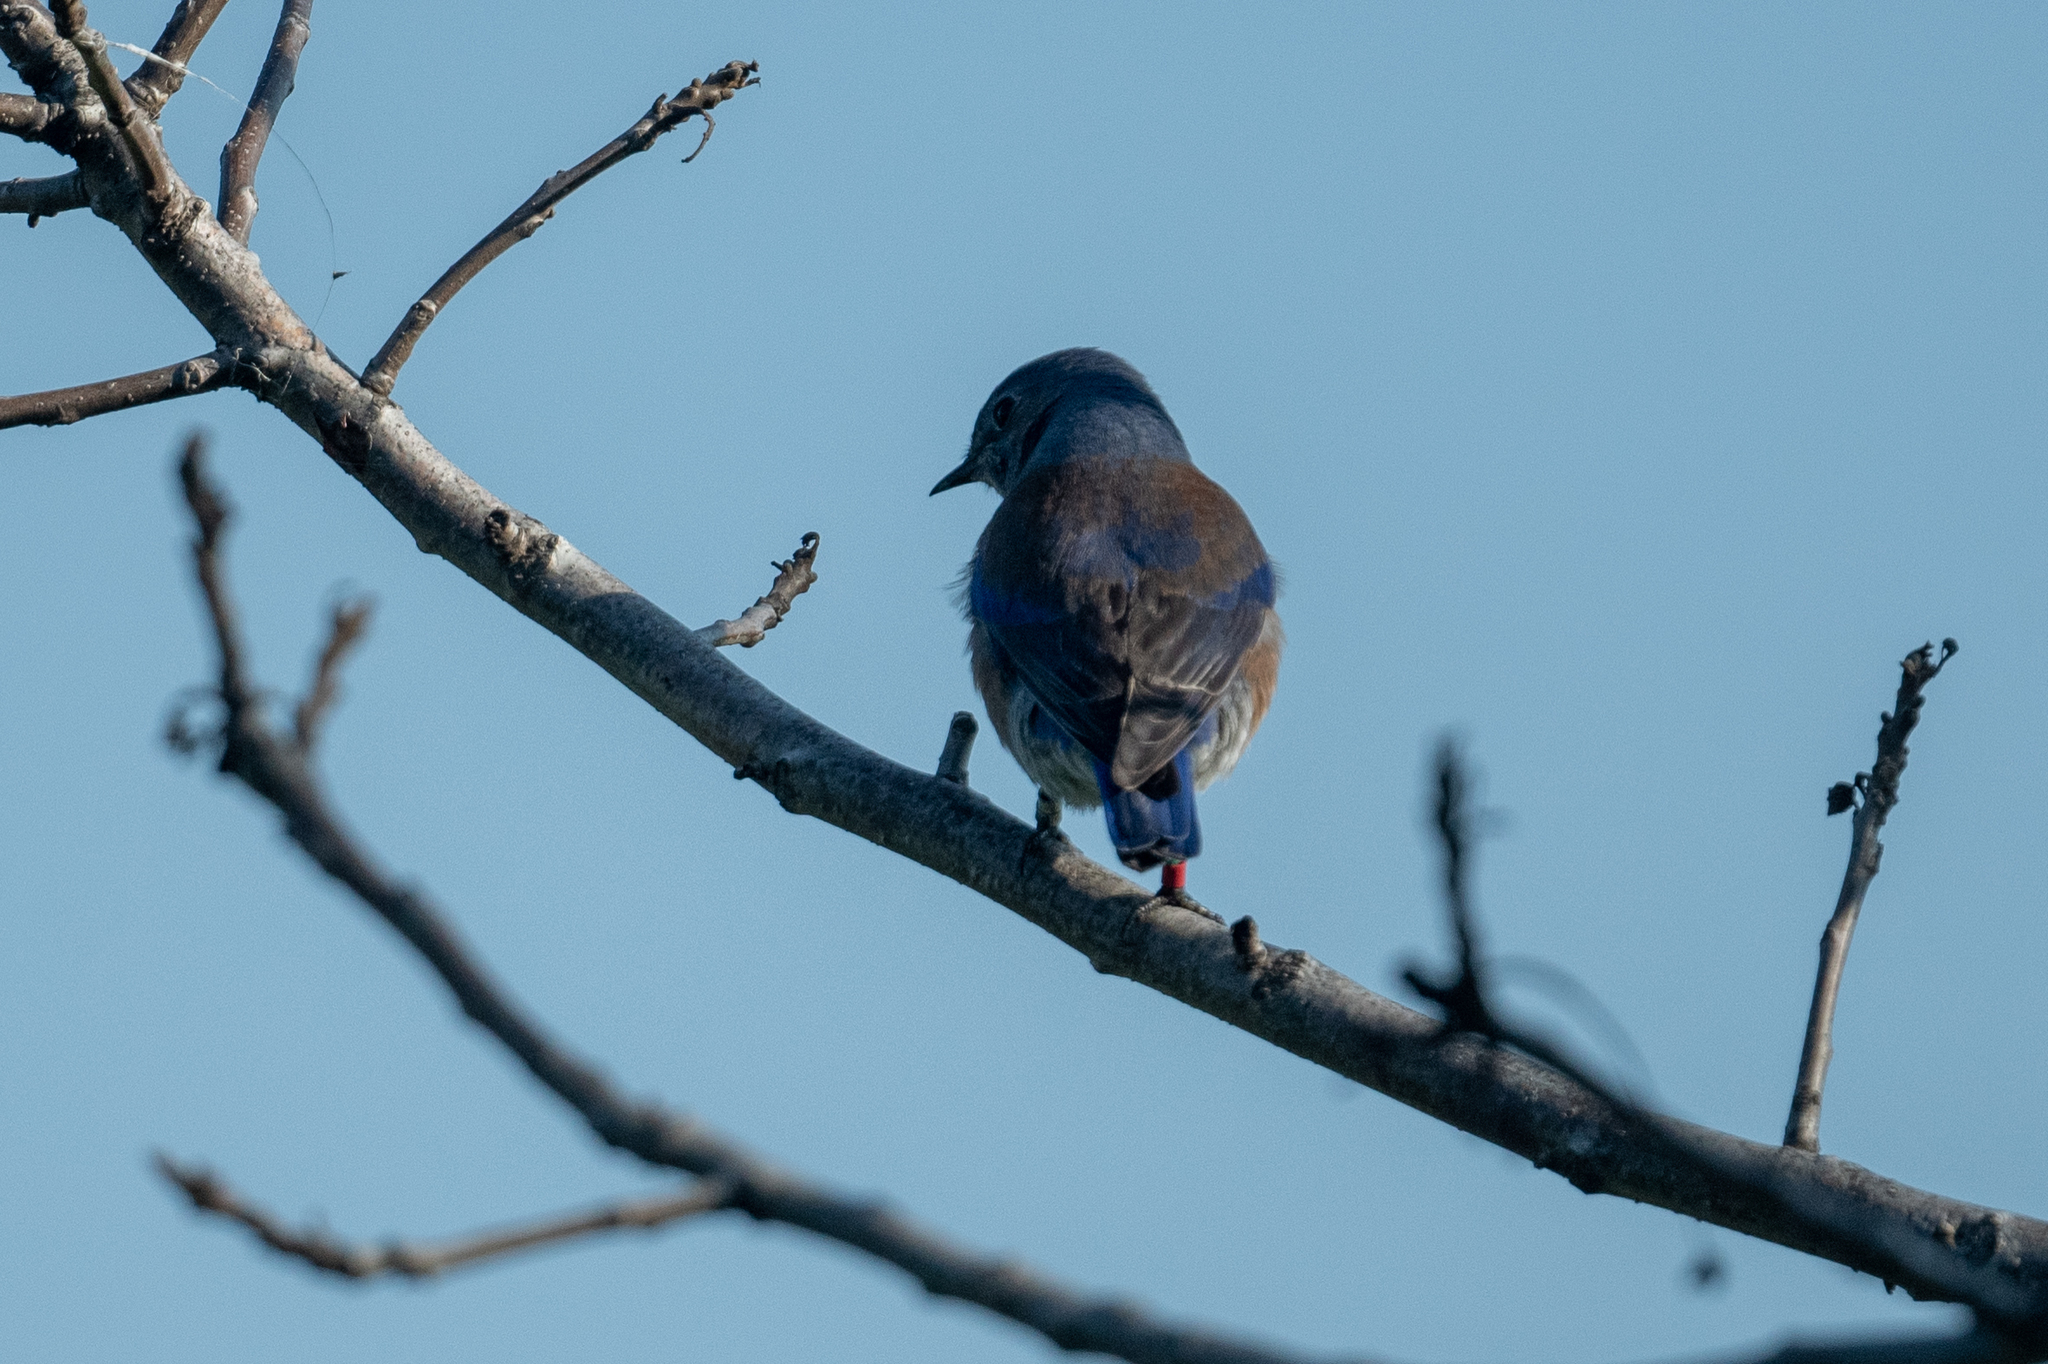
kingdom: Animalia
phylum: Chordata
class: Aves
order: Passeriformes
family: Turdidae
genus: Sialia
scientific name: Sialia mexicana
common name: Western bluebird
